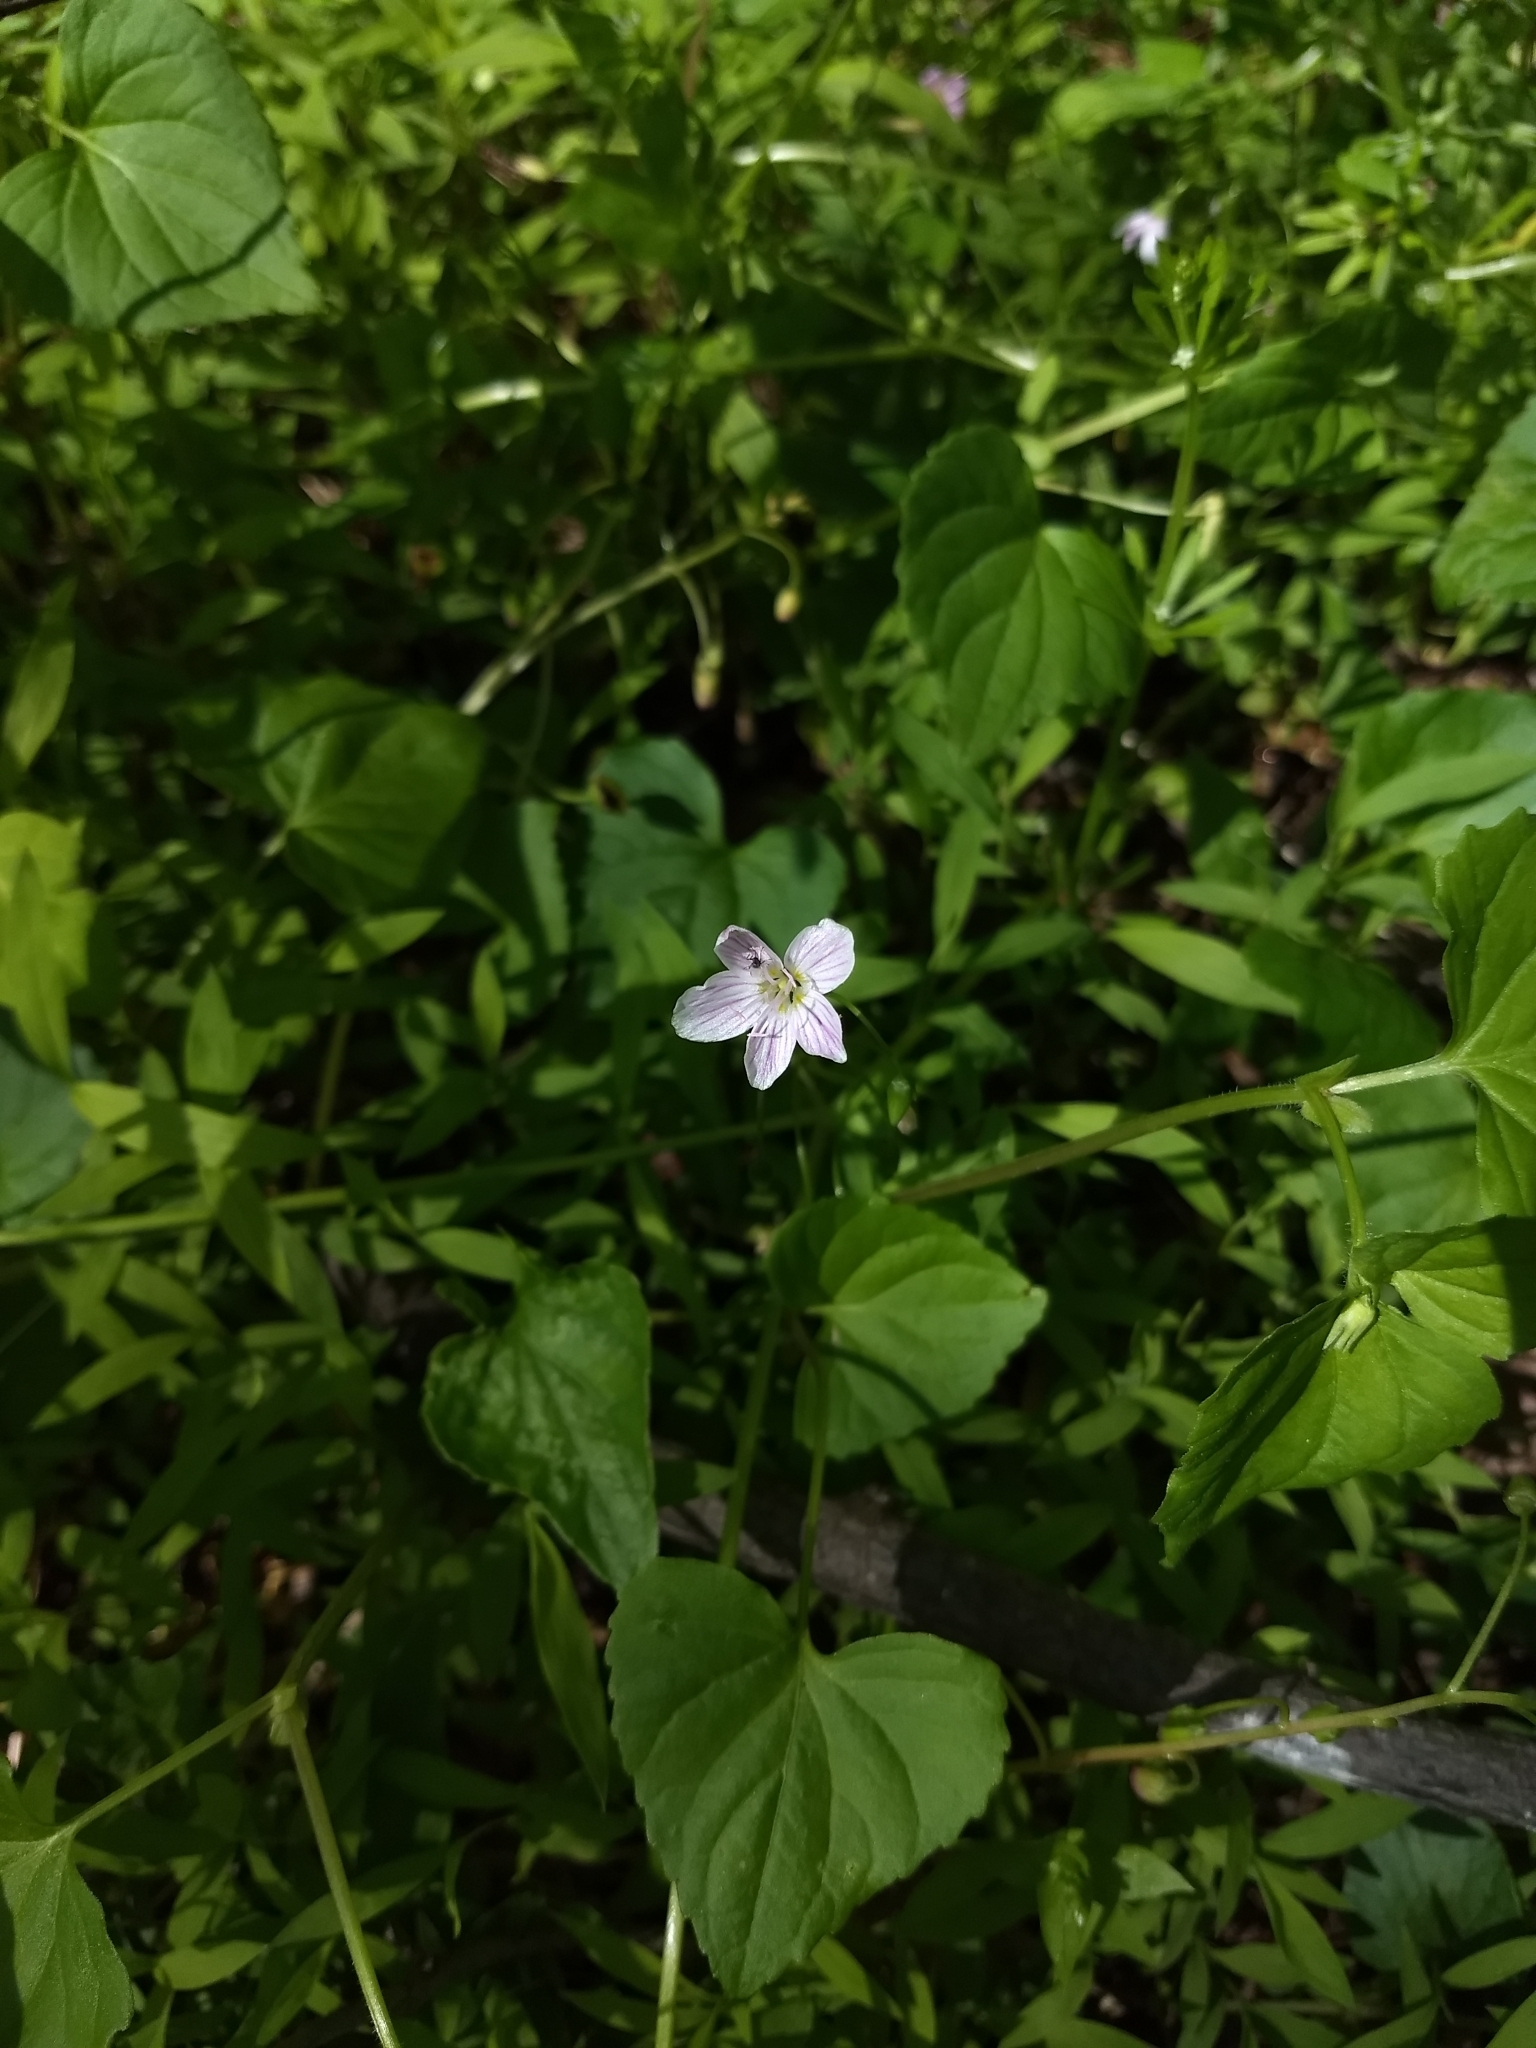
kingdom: Plantae
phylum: Tracheophyta
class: Magnoliopsida
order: Caryophyllales
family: Montiaceae
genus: Claytonia
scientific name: Claytonia virginica
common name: Virginia springbeauty
